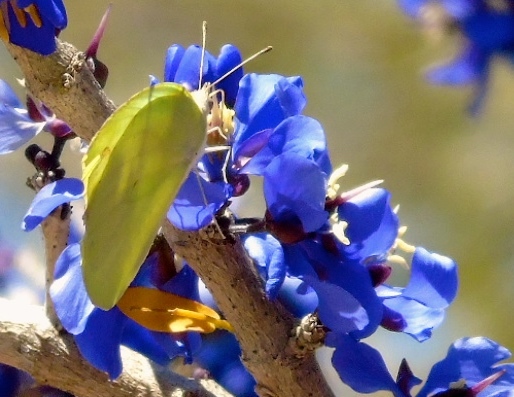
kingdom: Animalia
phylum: Arthropoda
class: Insecta
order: Lepidoptera
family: Pieridae
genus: Kricogonia
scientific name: Kricogonia lyside
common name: Guayacan sulphur,
